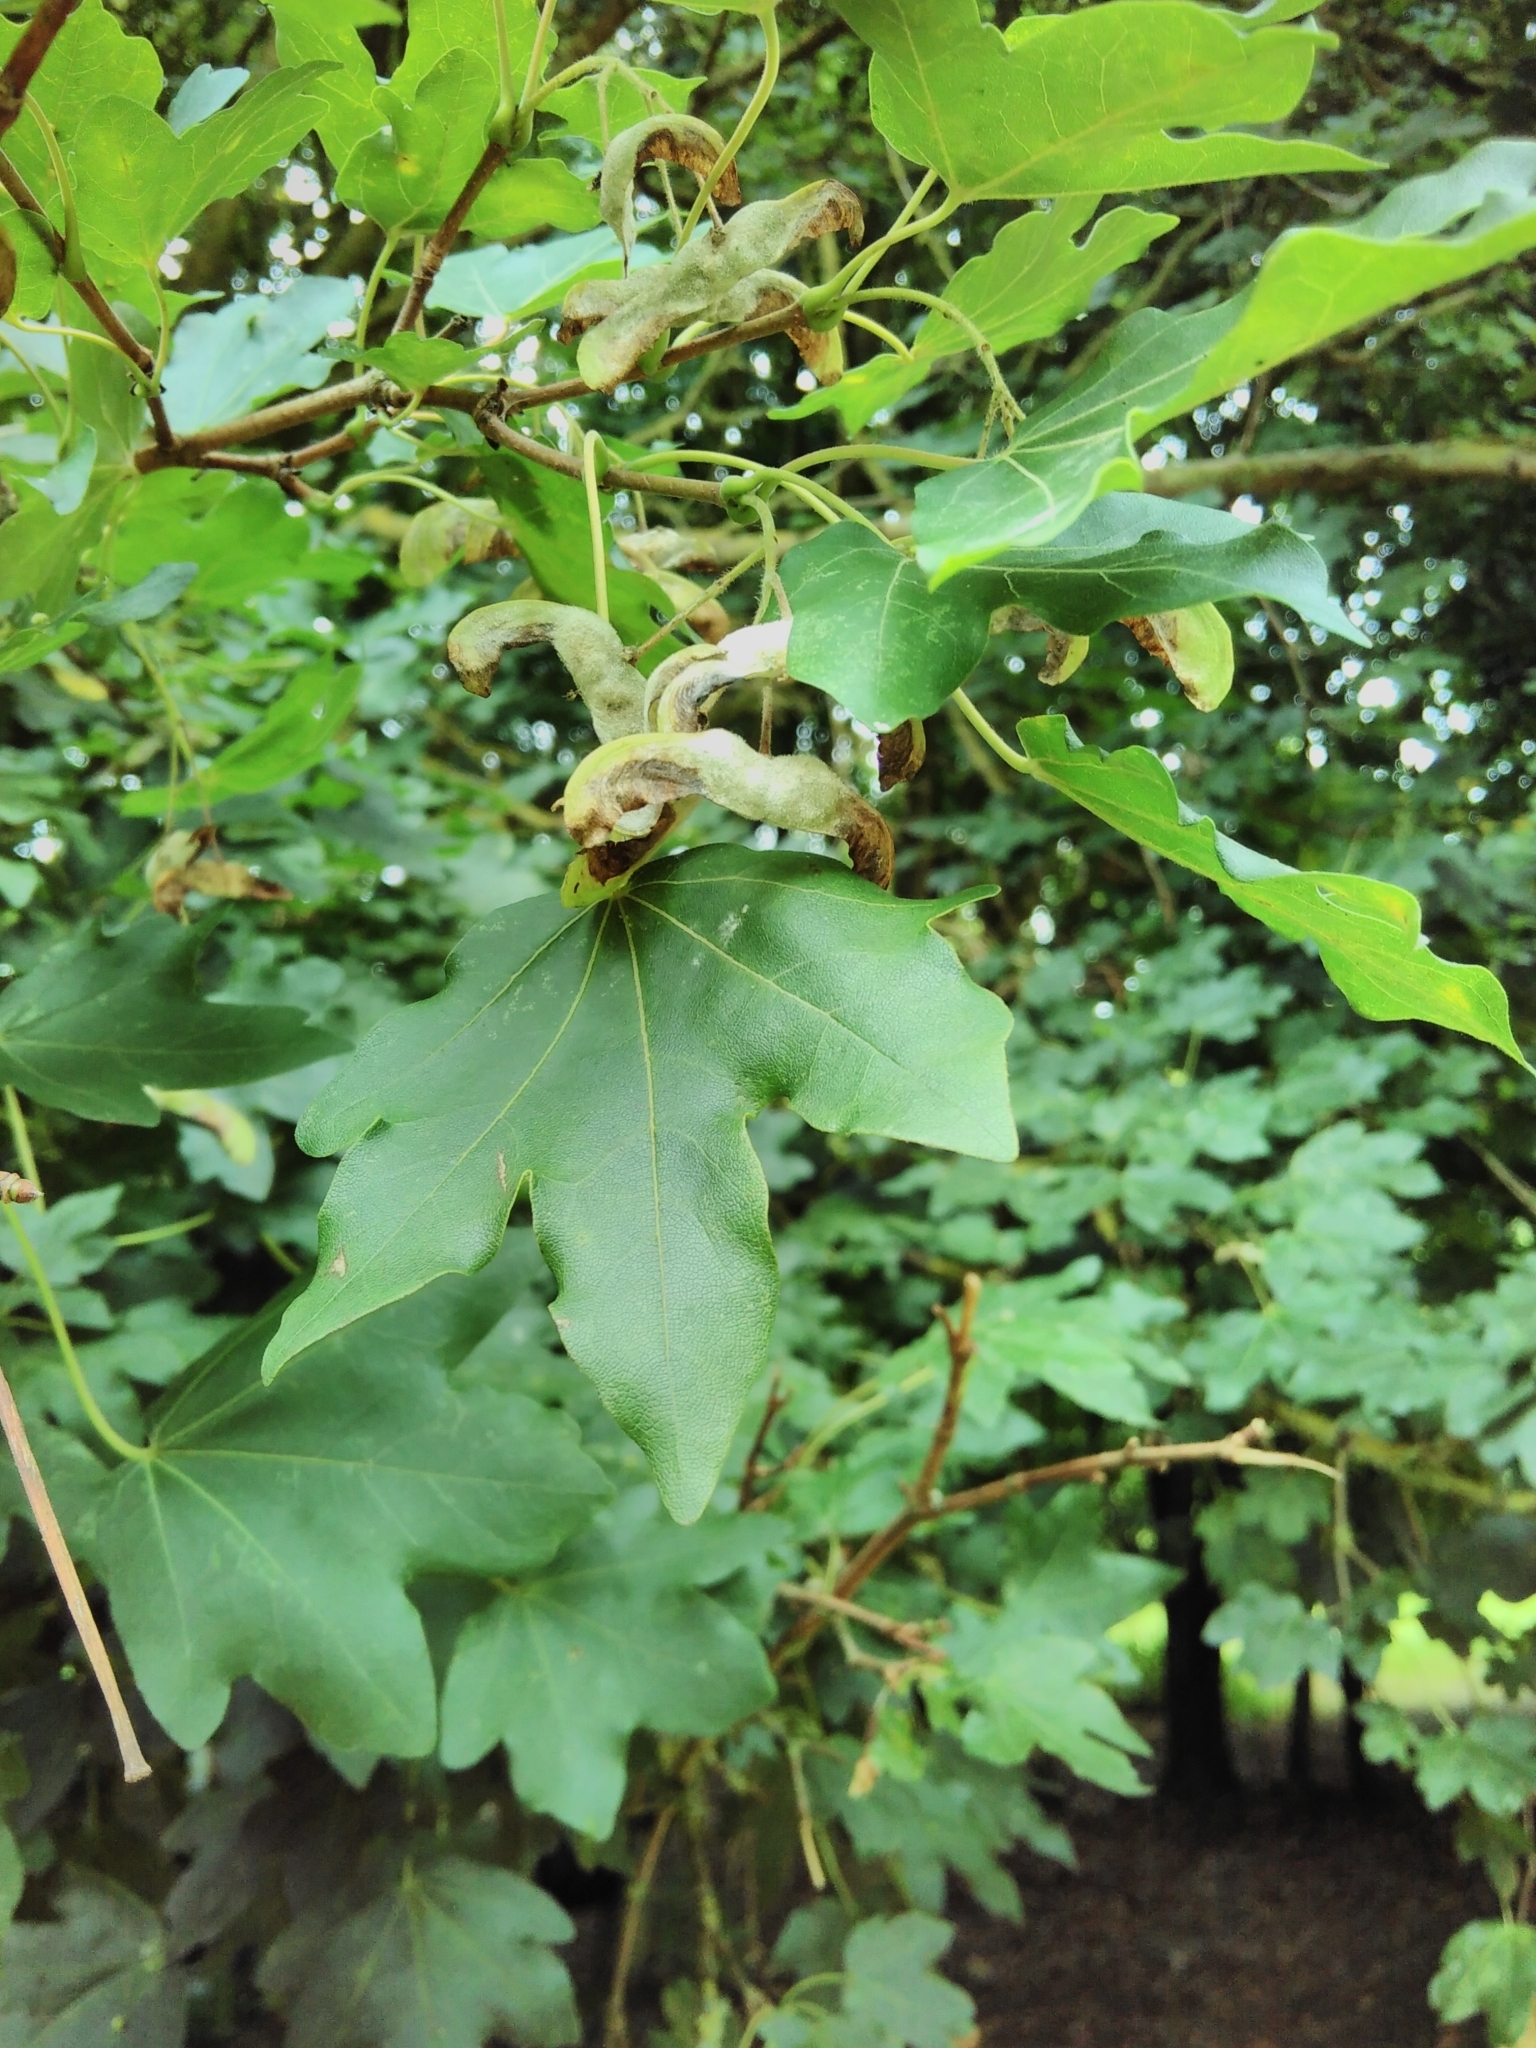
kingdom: Plantae
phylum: Tracheophyta
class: Magnoliopsida
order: Sapindales
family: Sapindaceae
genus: Acer
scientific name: Acer campestre
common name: Field maple
